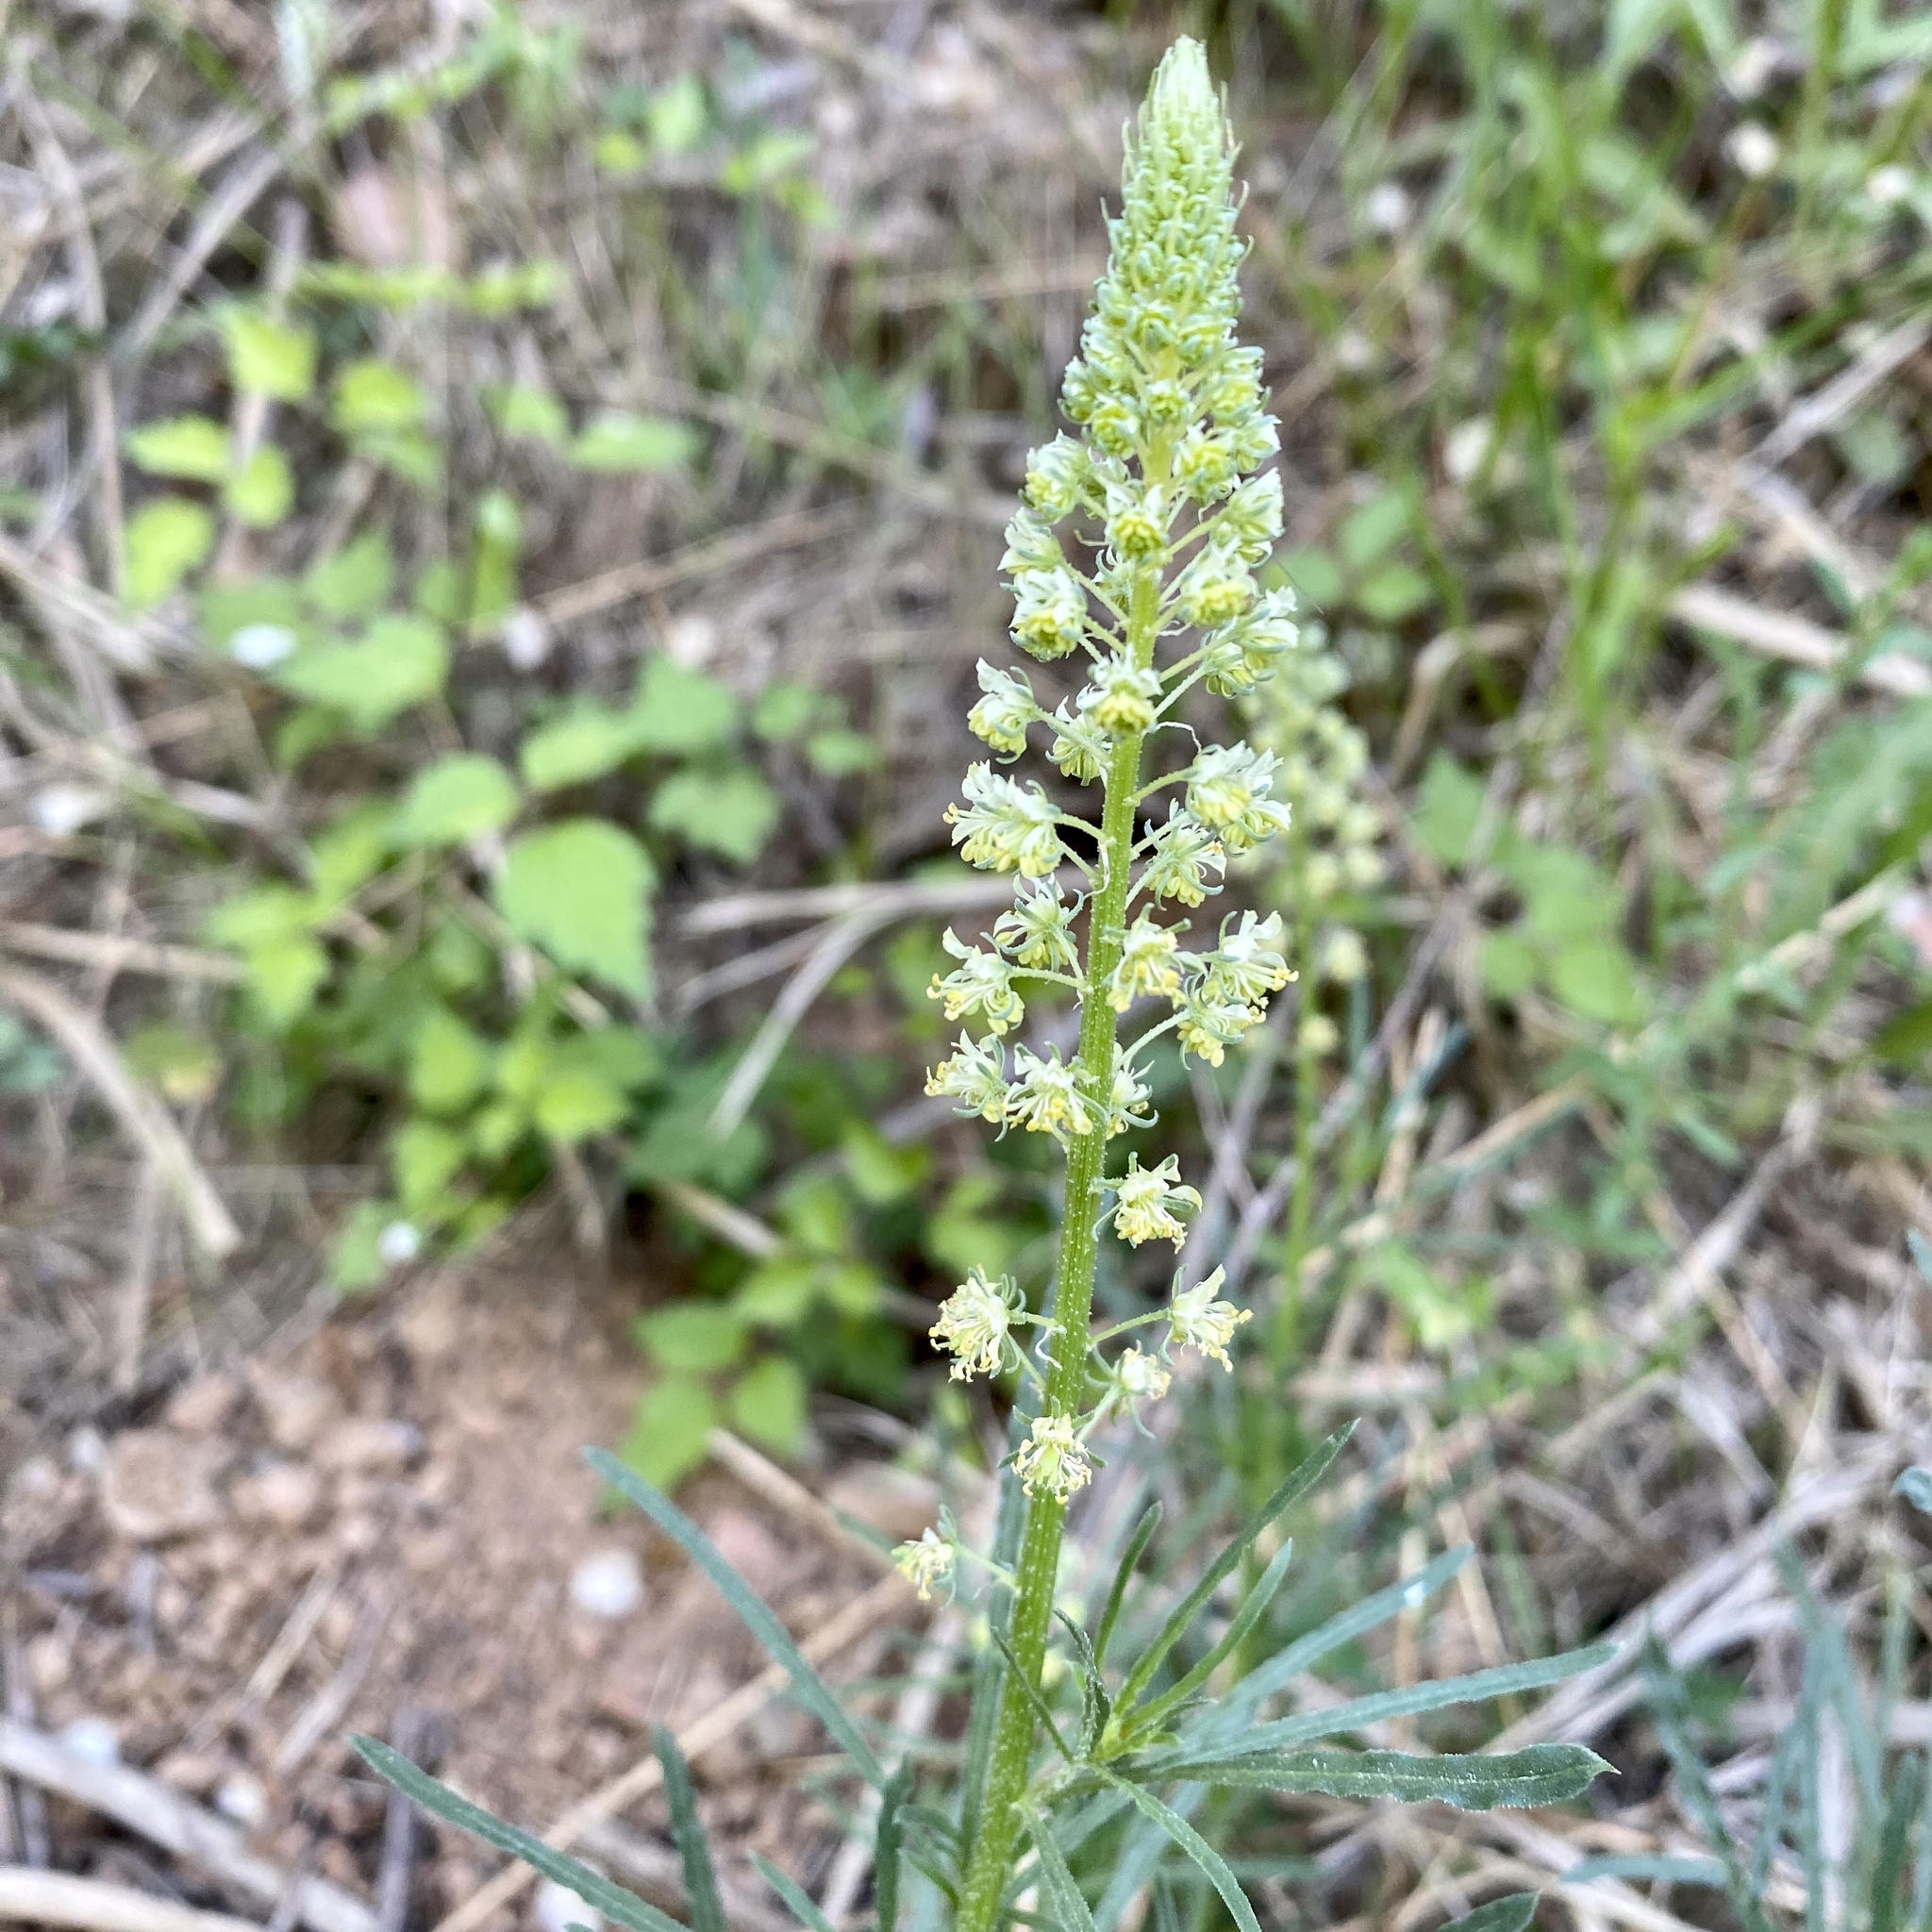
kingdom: Plantae
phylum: Tracheophyta
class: Magnoliopsida
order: Brassicales
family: Resedaceae
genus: Reseda
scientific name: Reseda lutea
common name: Wild mignonette
